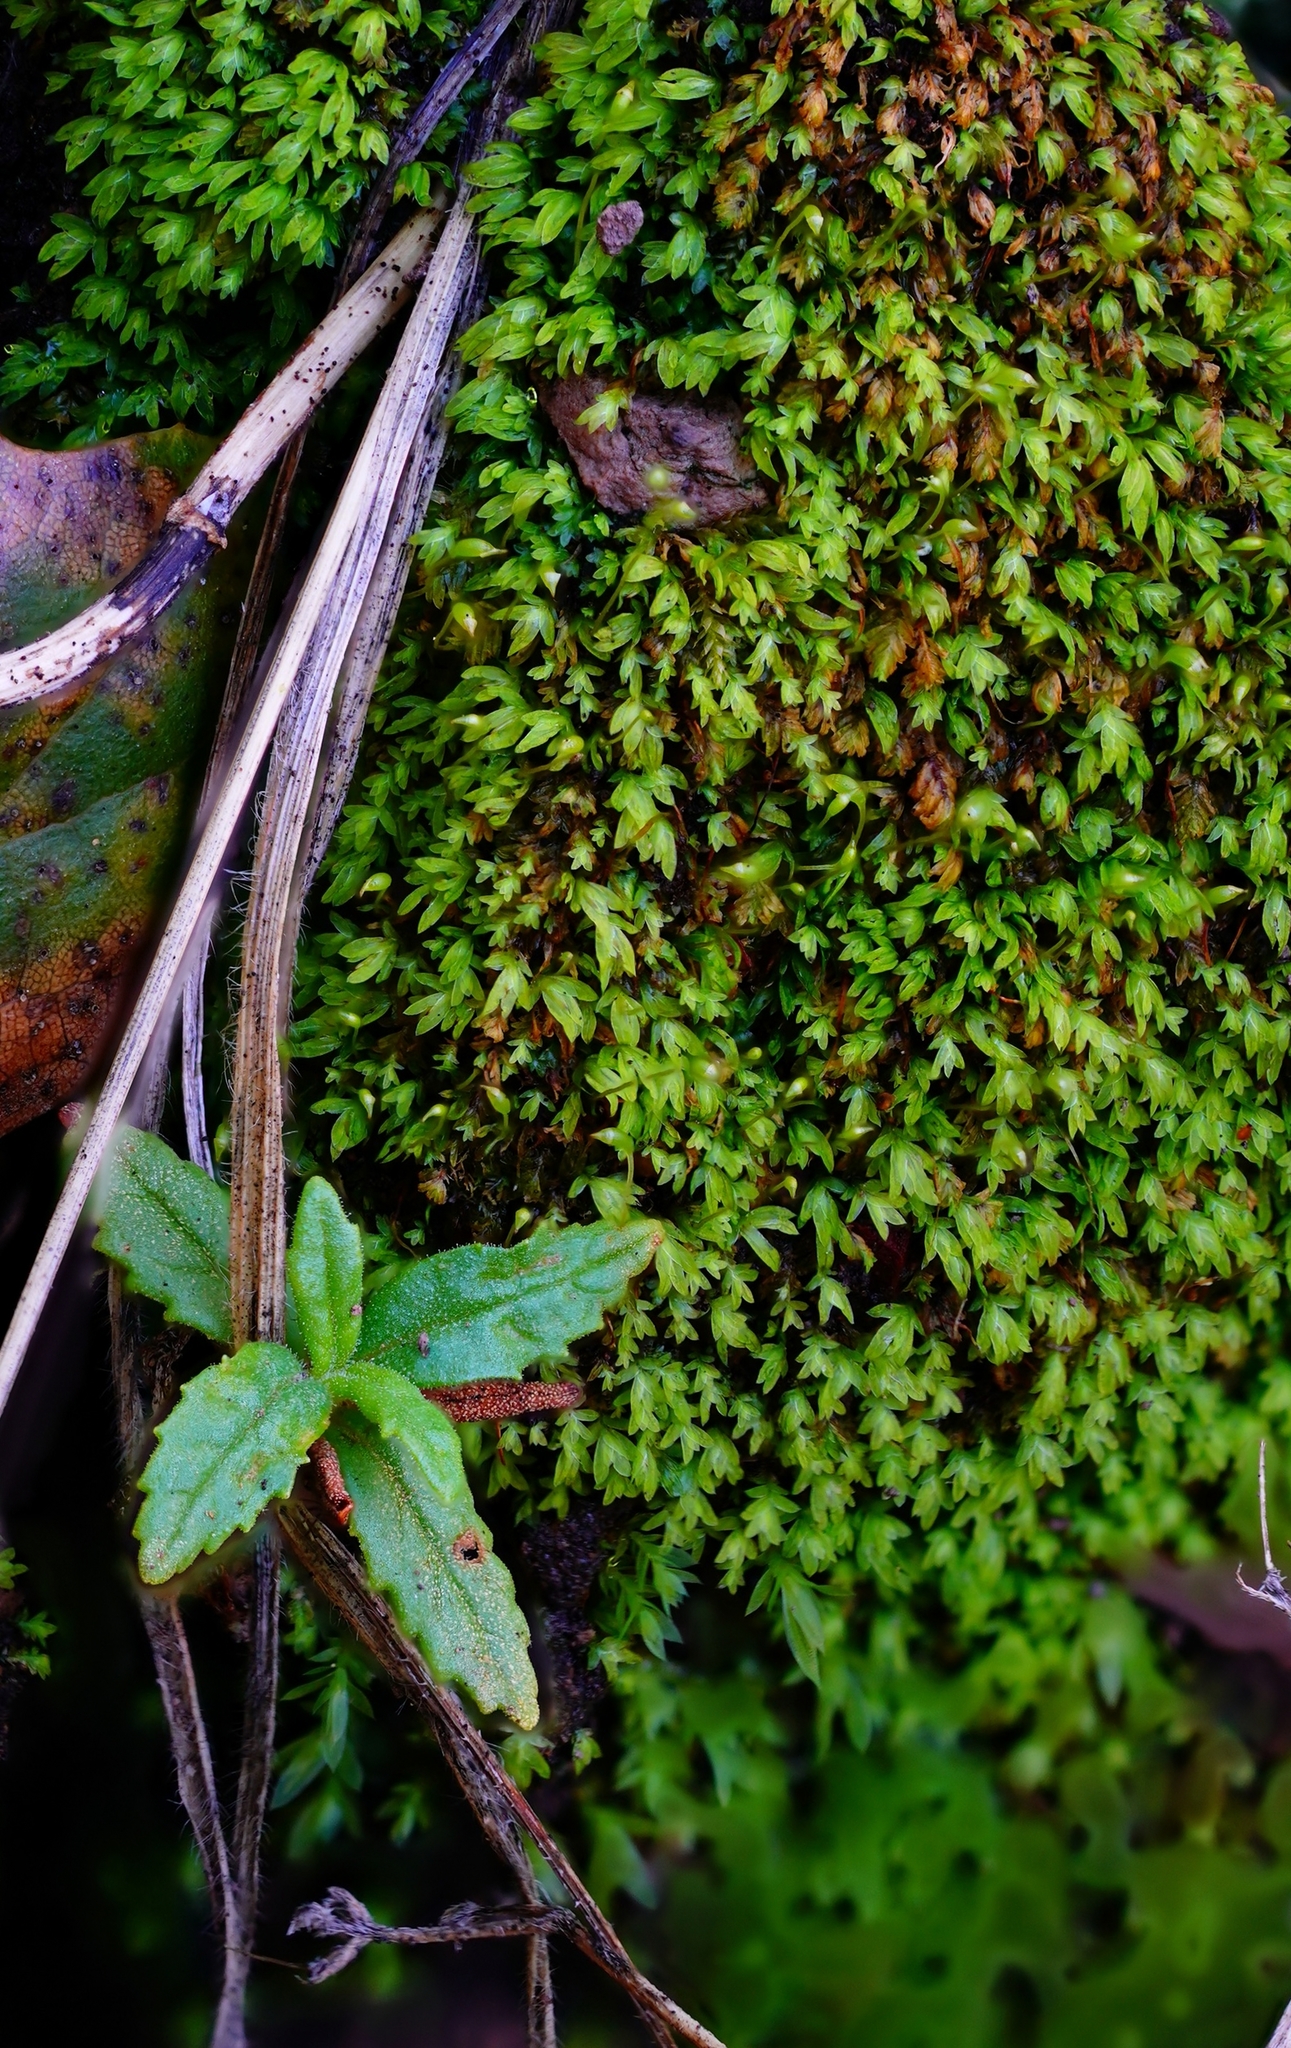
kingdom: Plantae
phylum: Tracheophyta
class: Magnoliopsida
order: Lamiales
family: Phrymaceae
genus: Diplacus
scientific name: Diplacus aurantiacus
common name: Bush monkey-flower
